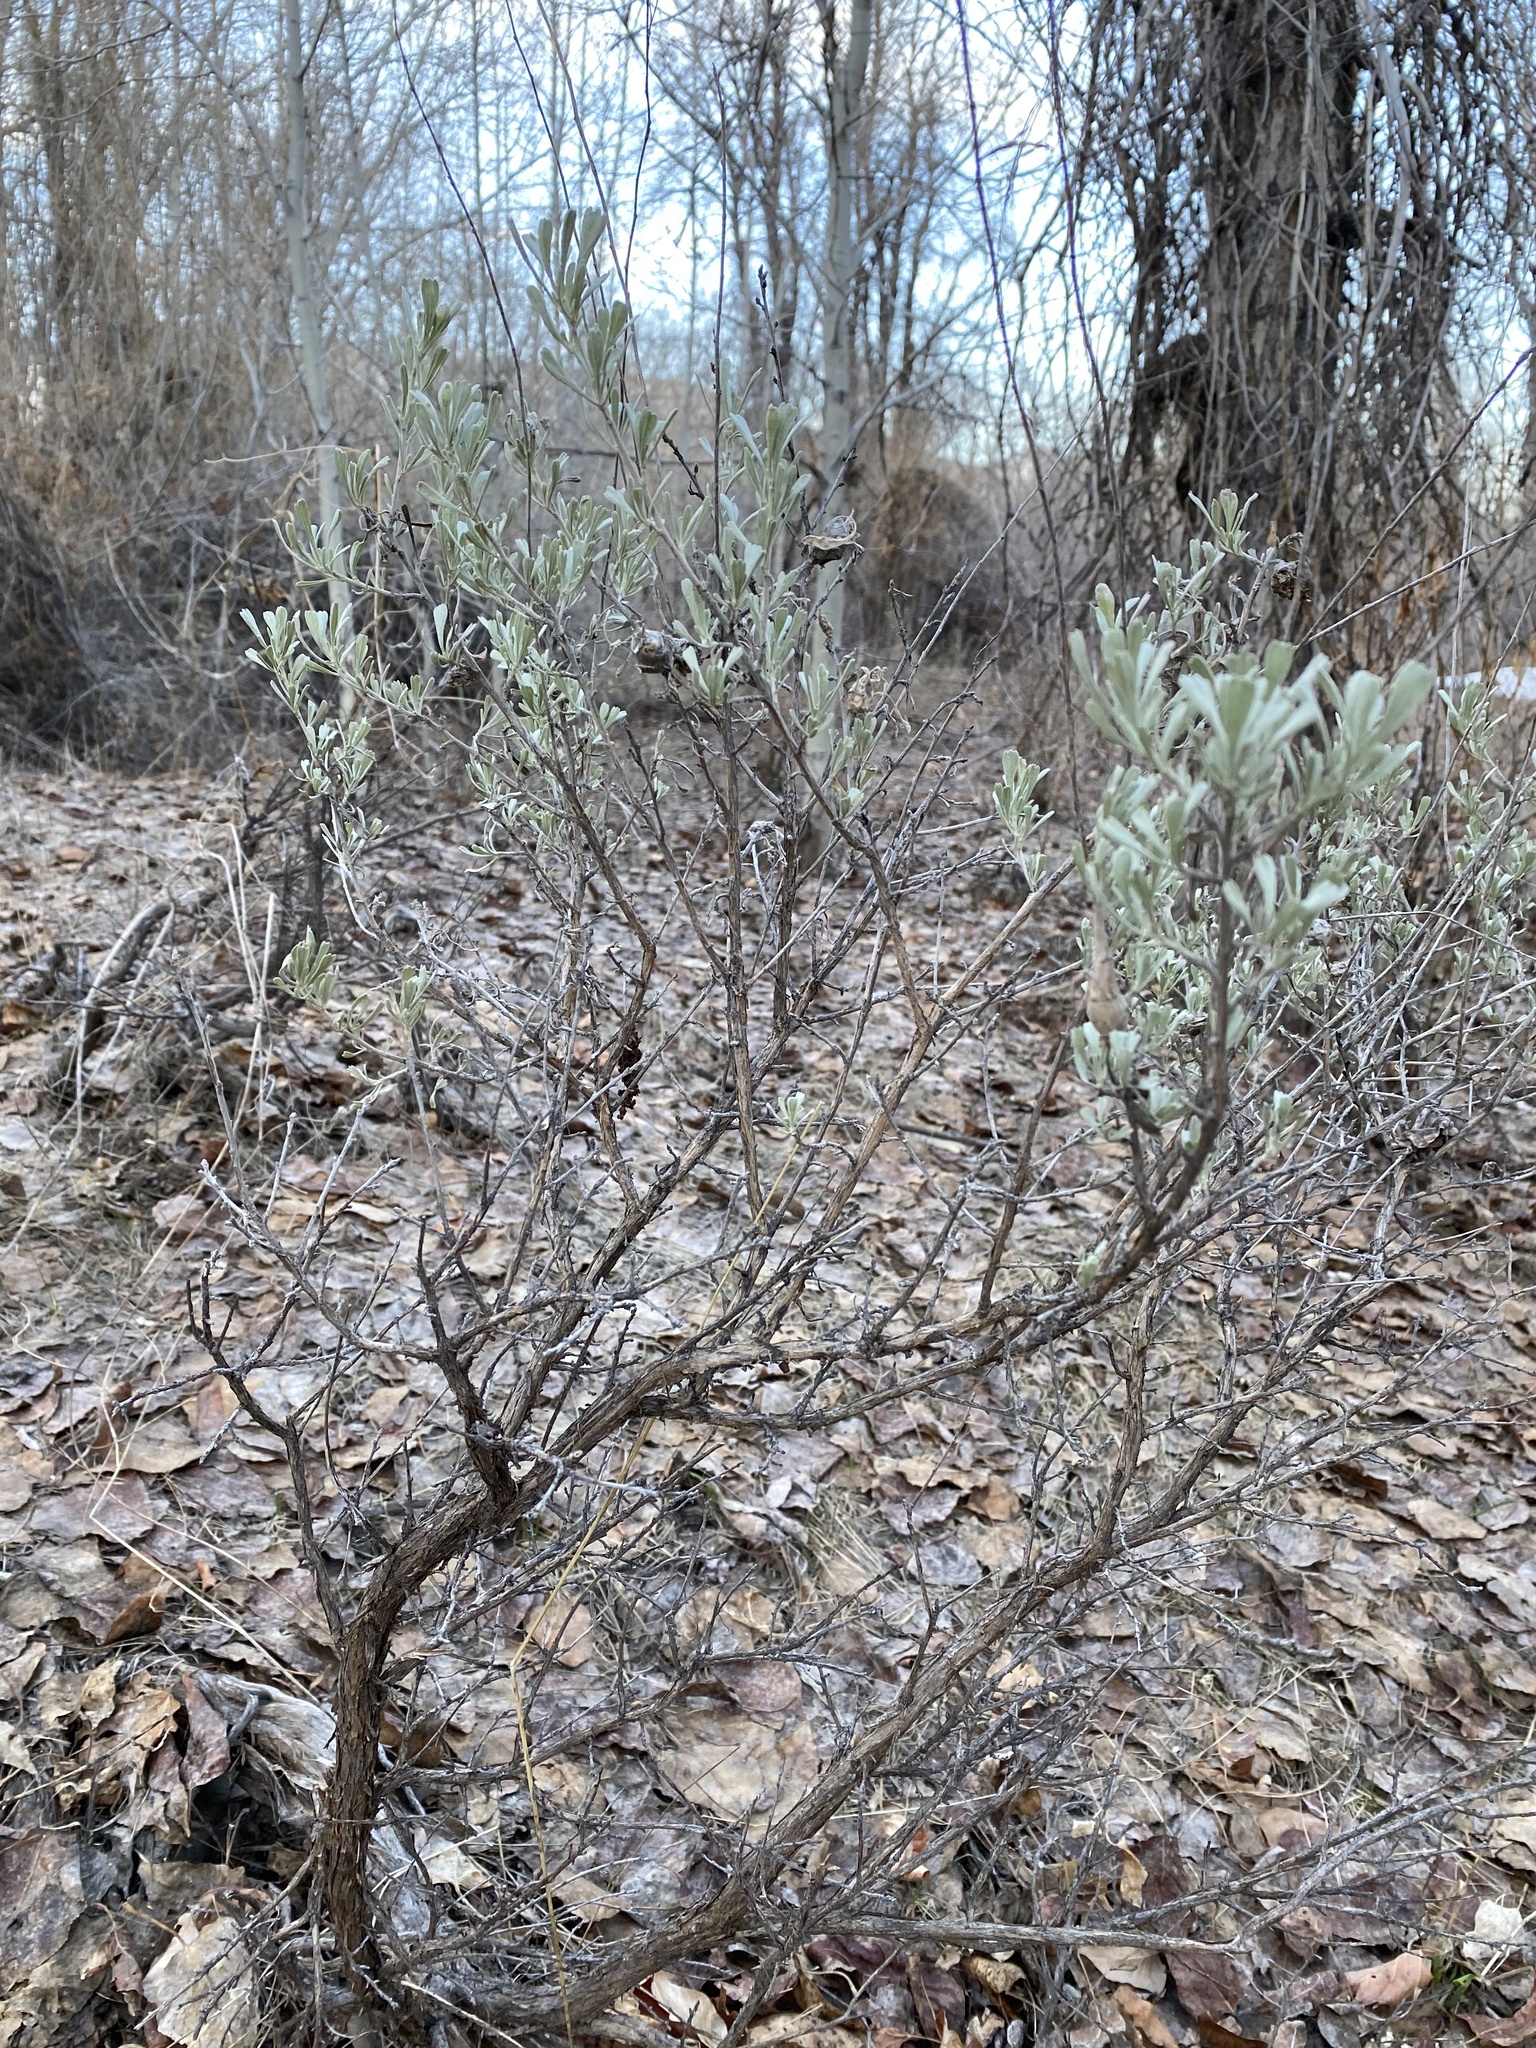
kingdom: Plantae
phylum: Tracheophyta
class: Magnoliopsida
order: Asterales
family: Asteraceae
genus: Artemisia
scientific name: Artemisia tridentata
